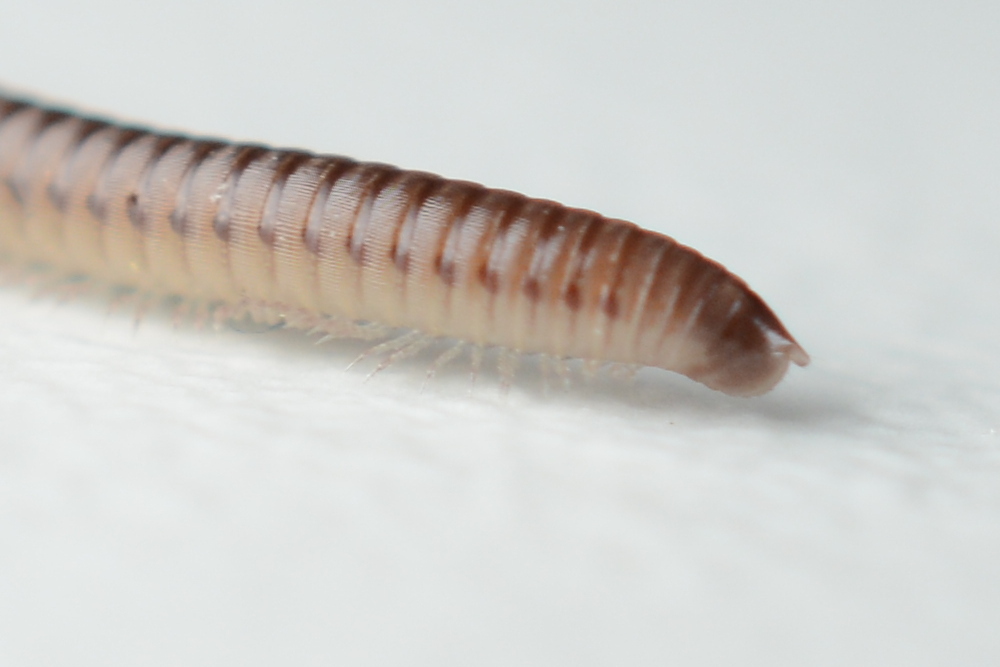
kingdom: Animalia
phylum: Arthropoda
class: Diplopoda
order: Julida
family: Julidae
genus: Cylindroiulus
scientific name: Cylindroiulus punctatus
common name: Blunt-tailed millipede
